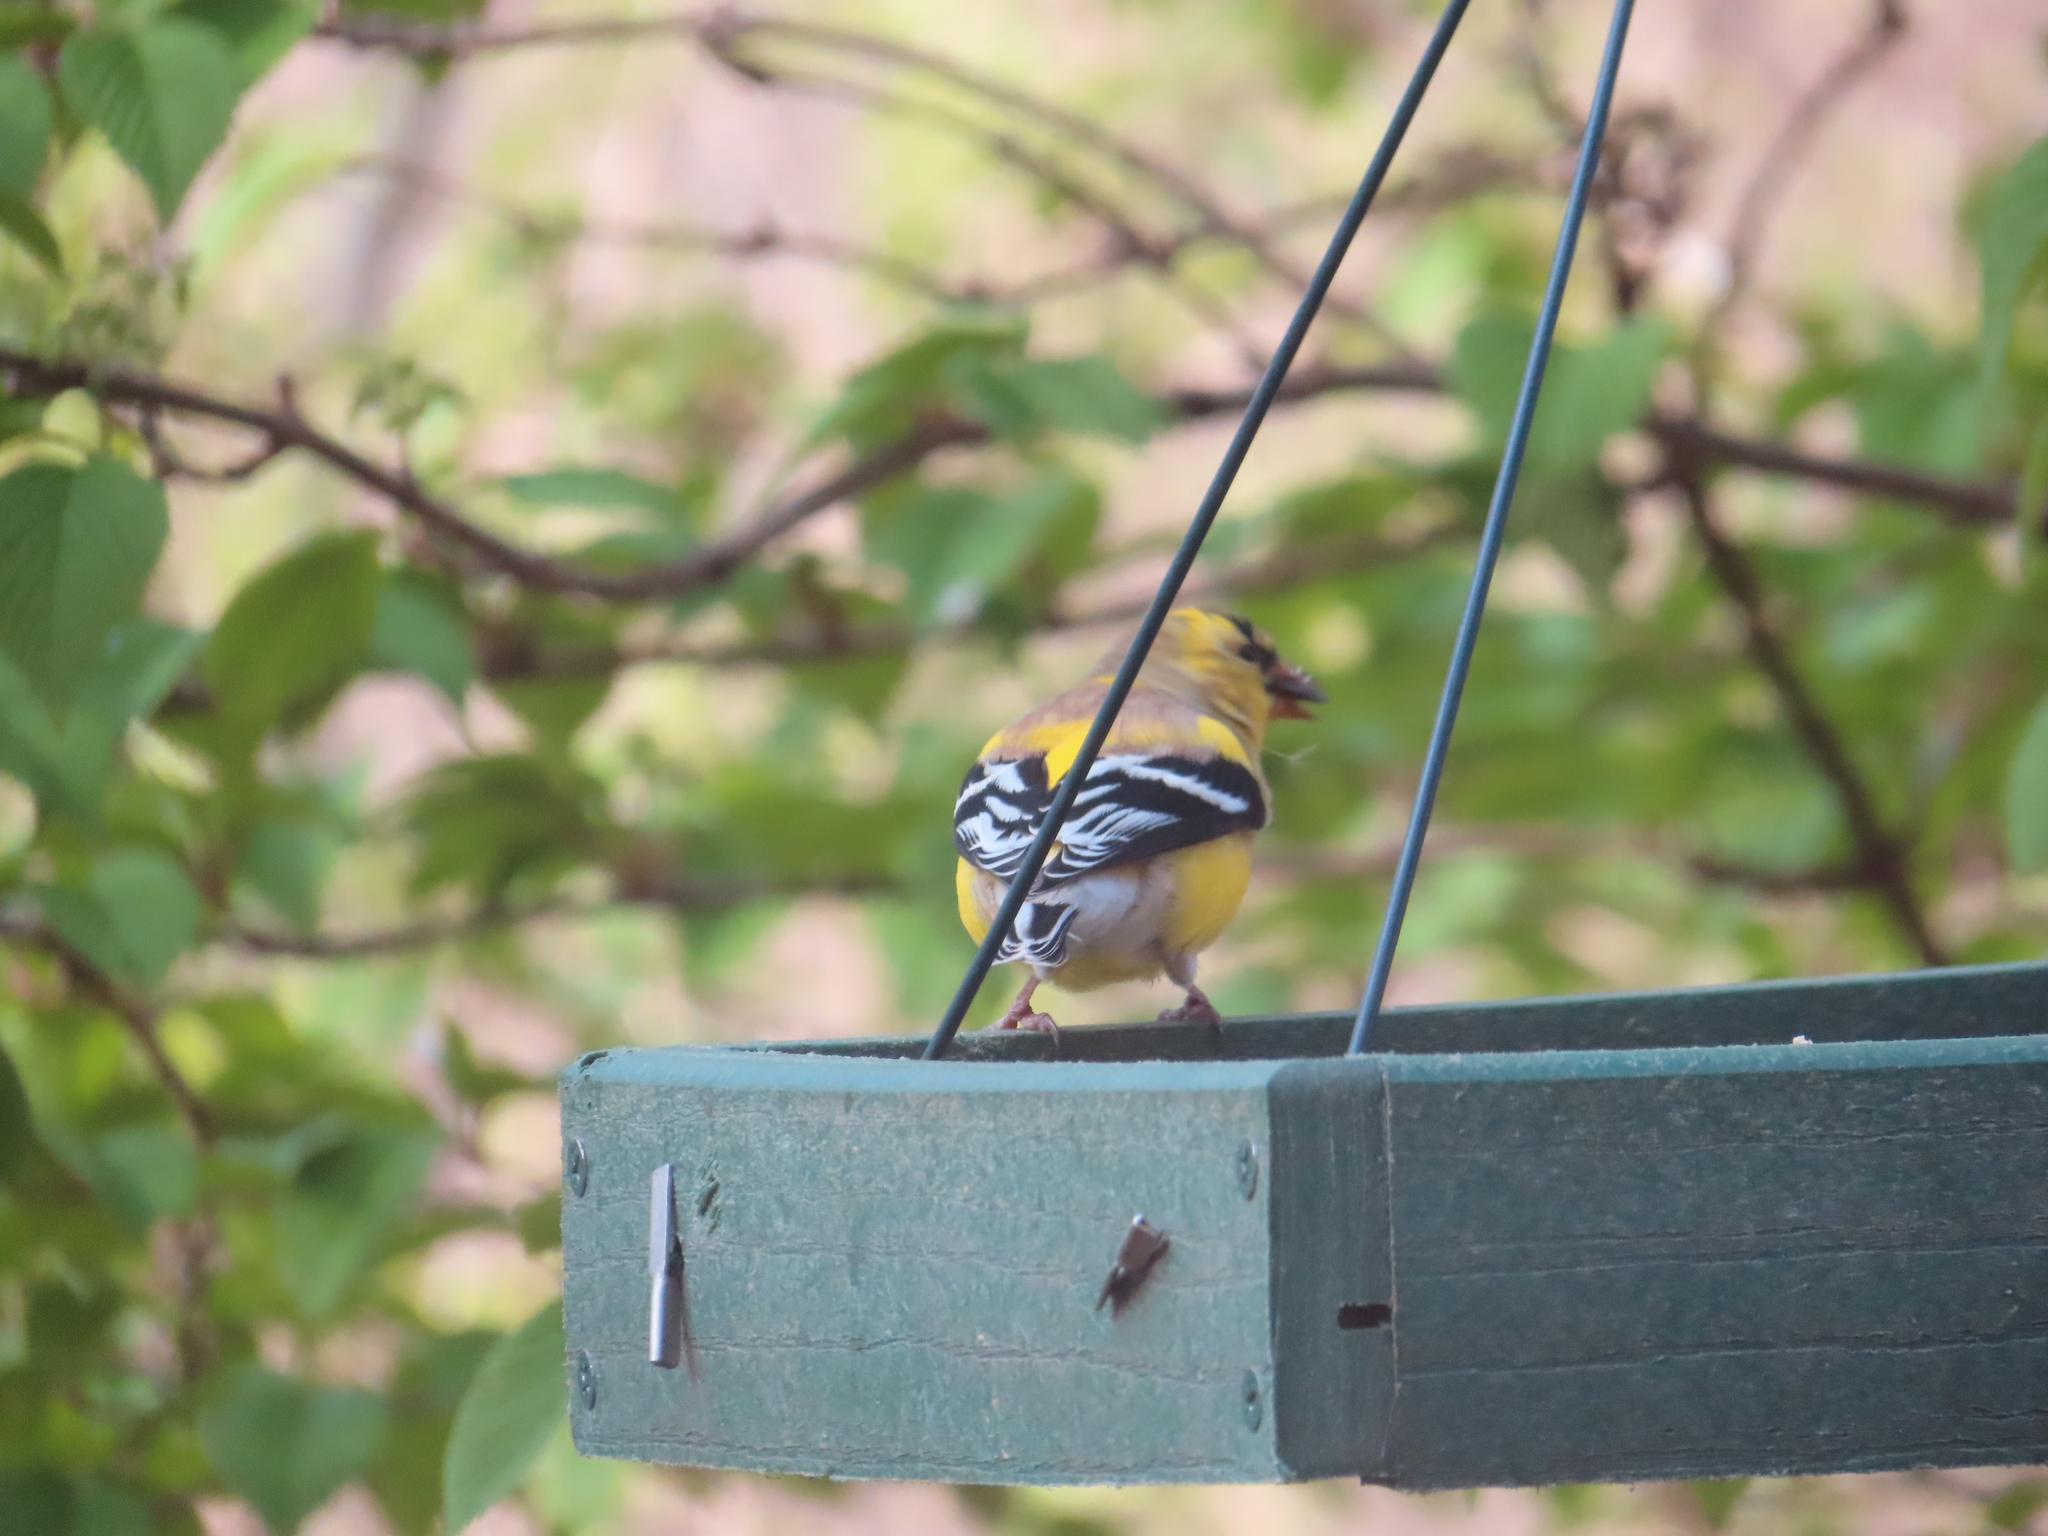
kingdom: Animalia
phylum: Chordata
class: Aves
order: Passeriformes
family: Fringillidae
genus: Spinus
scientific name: Spinus tristis
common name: American goldfinch
